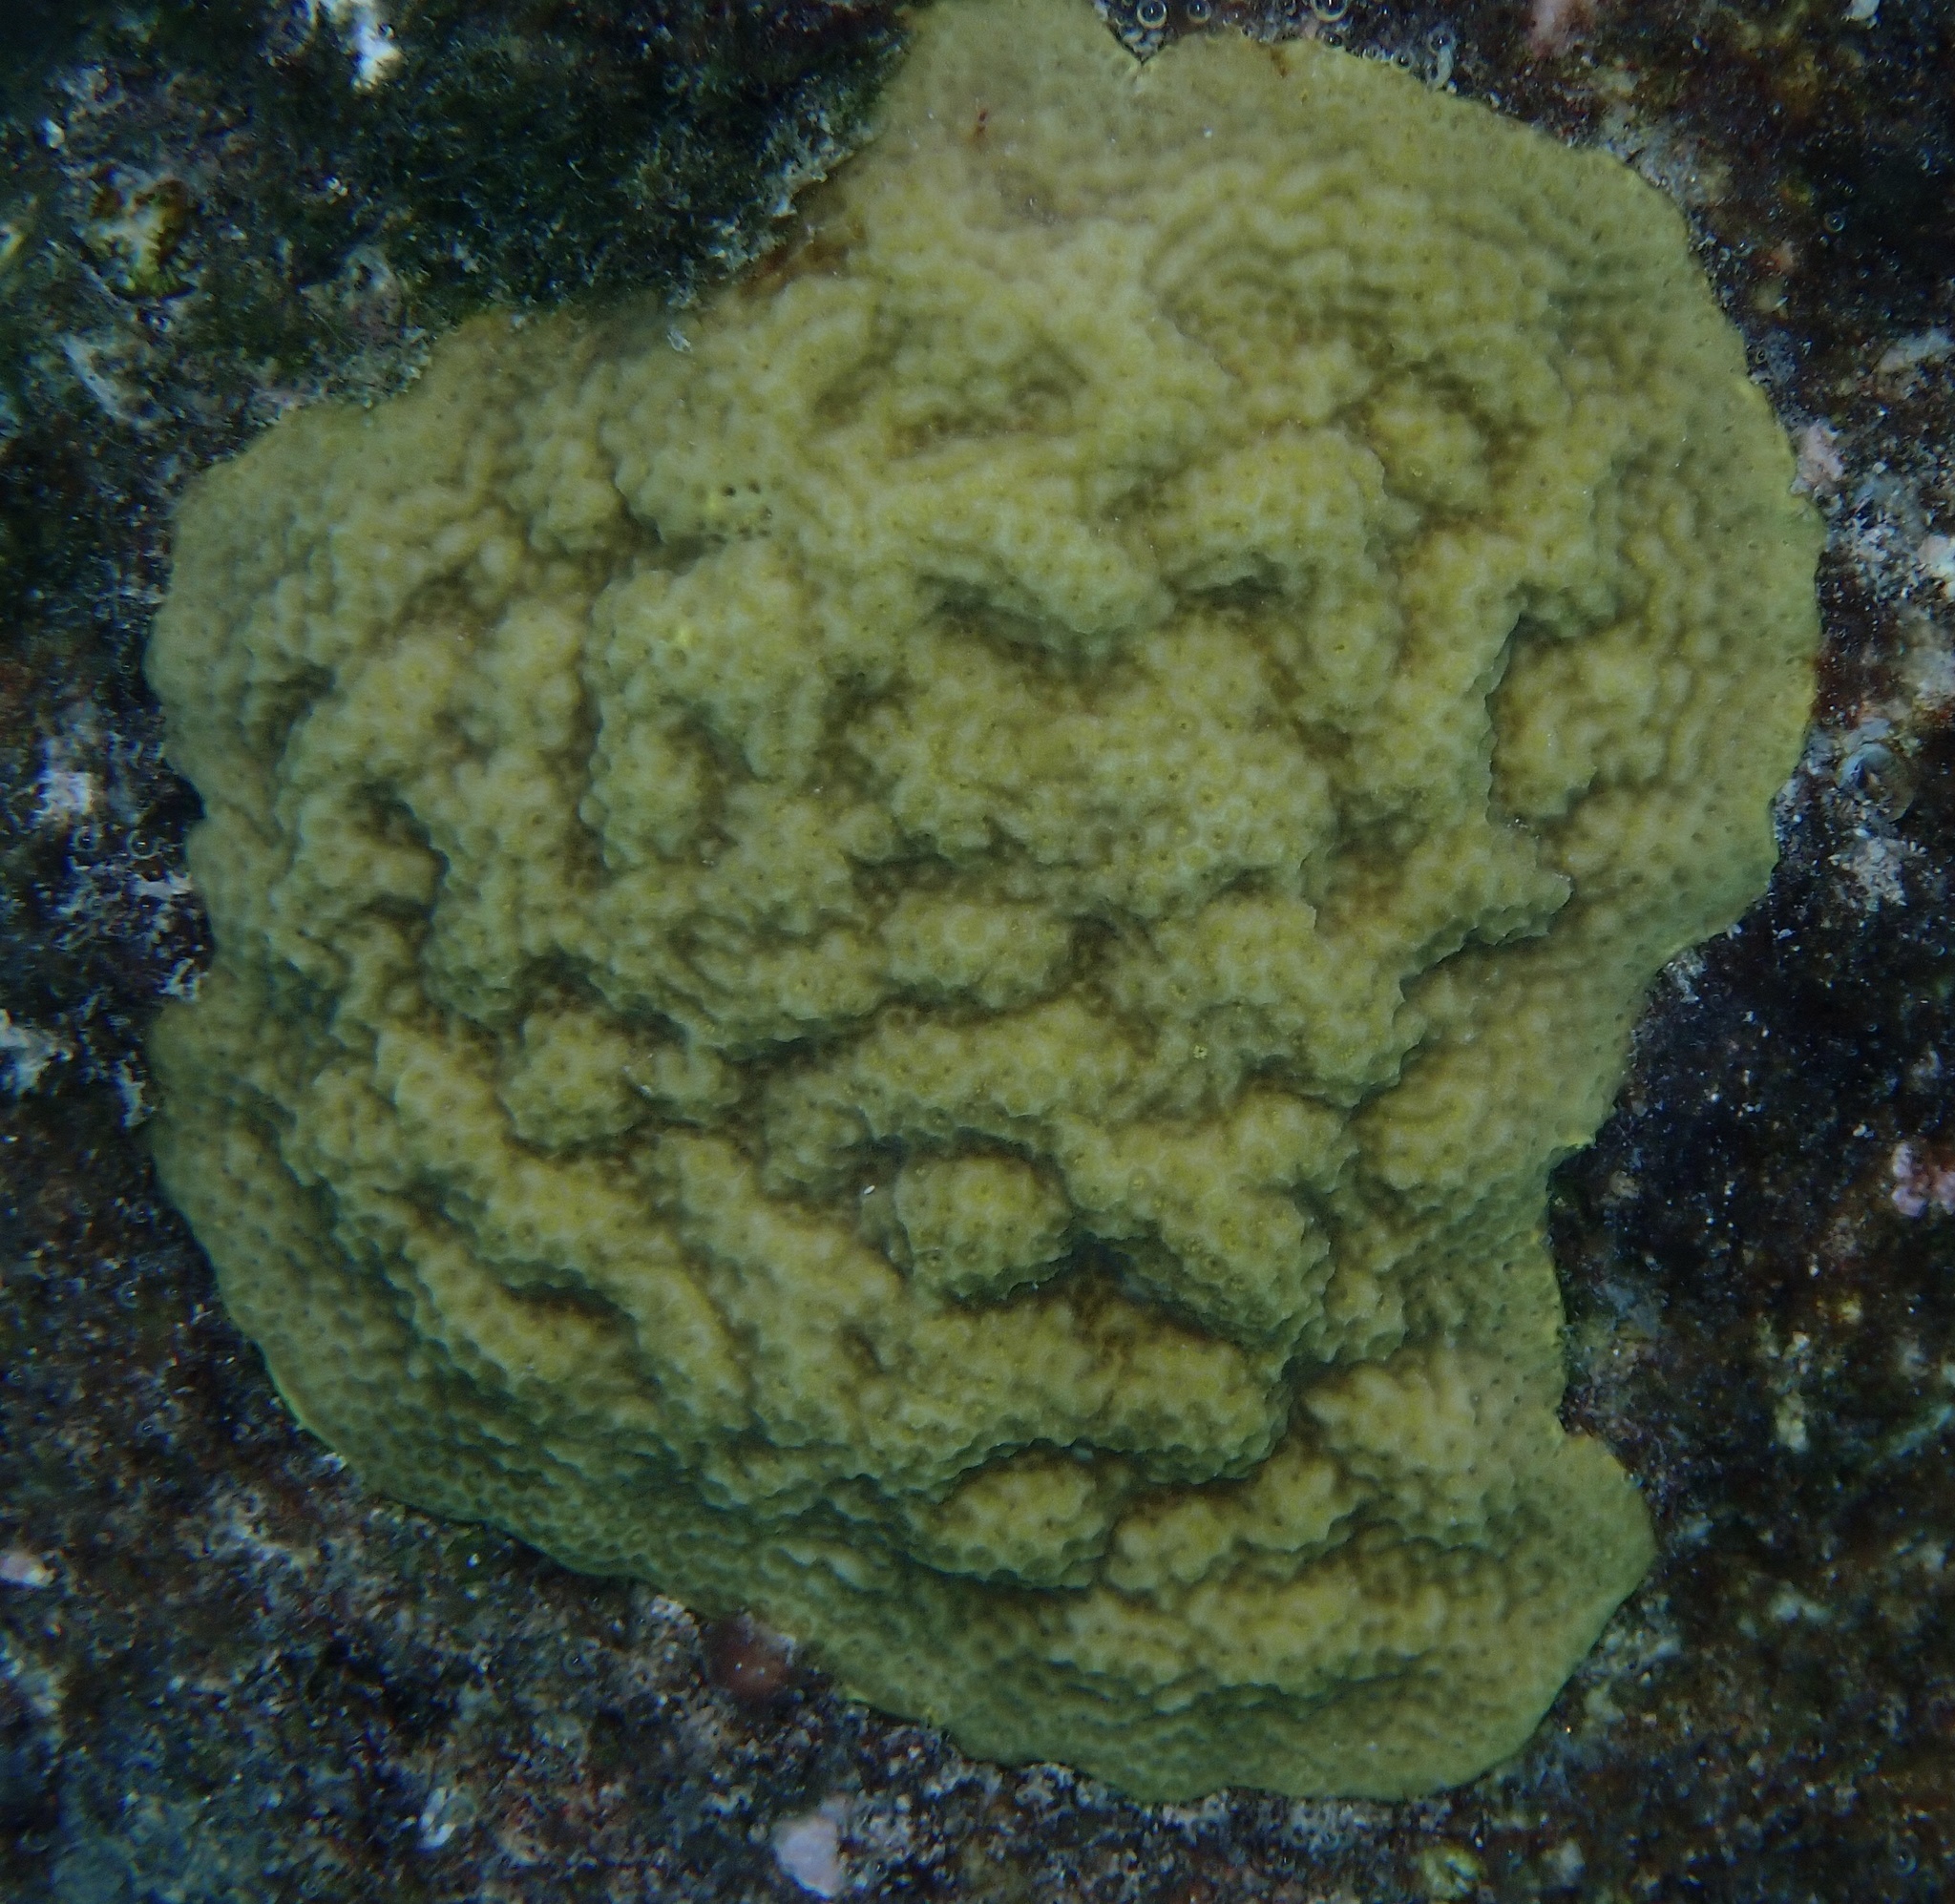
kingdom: Animalia
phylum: Cnidaria
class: Anthozoa
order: Scleractinia
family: Poritidae
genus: Porites
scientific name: Porites astreoides
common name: Mustard hill coral
